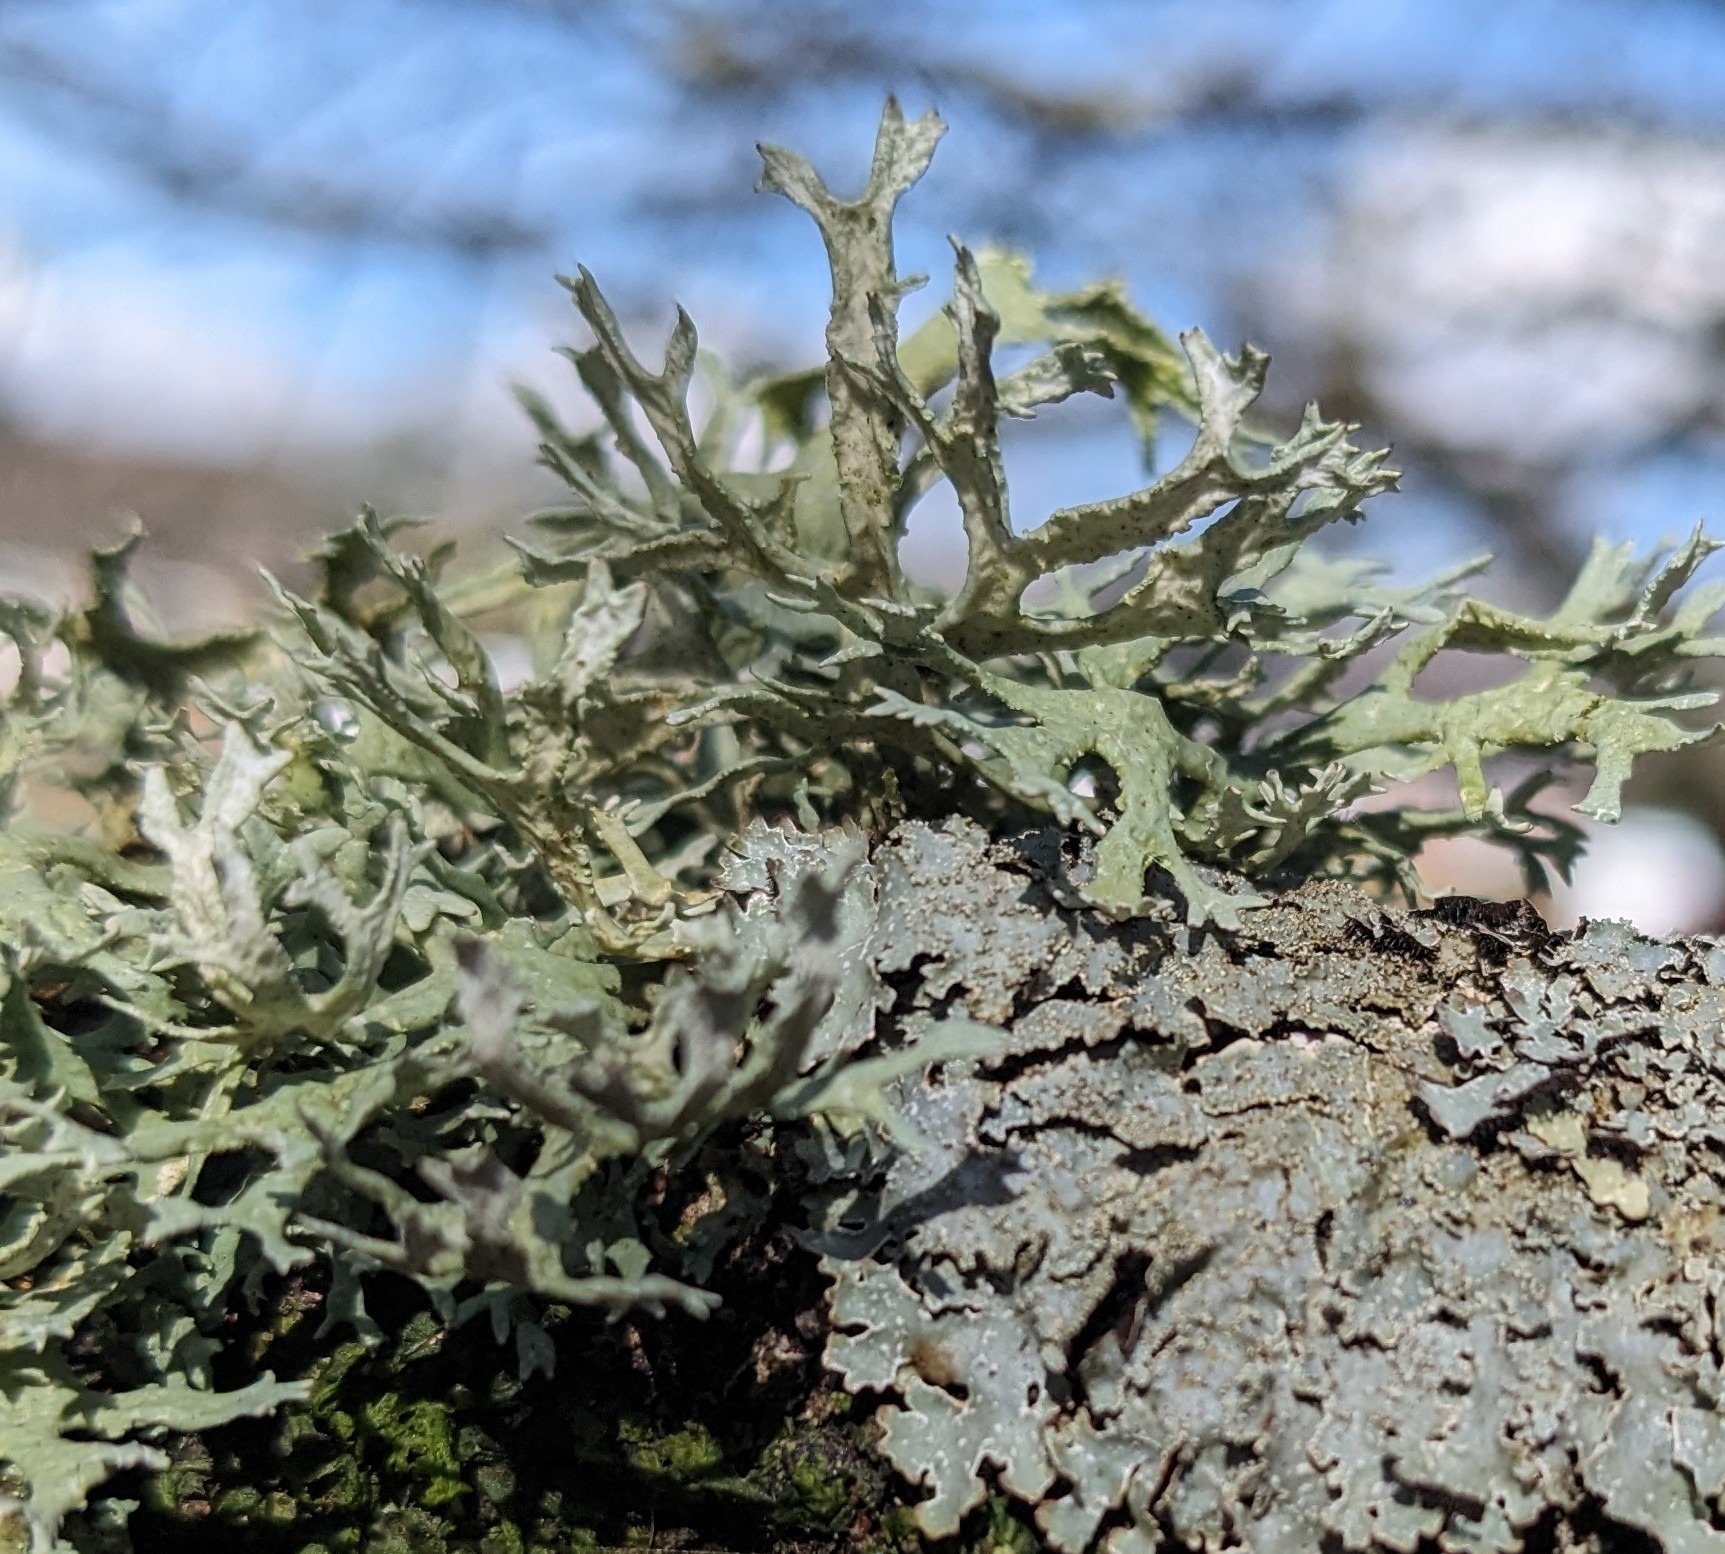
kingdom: Fungi
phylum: Ascomycota
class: Lecanoromycetes
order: Lecanorales
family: Parmeliaceae
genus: Evernia
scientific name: Evernia prunastri
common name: Oak moss
